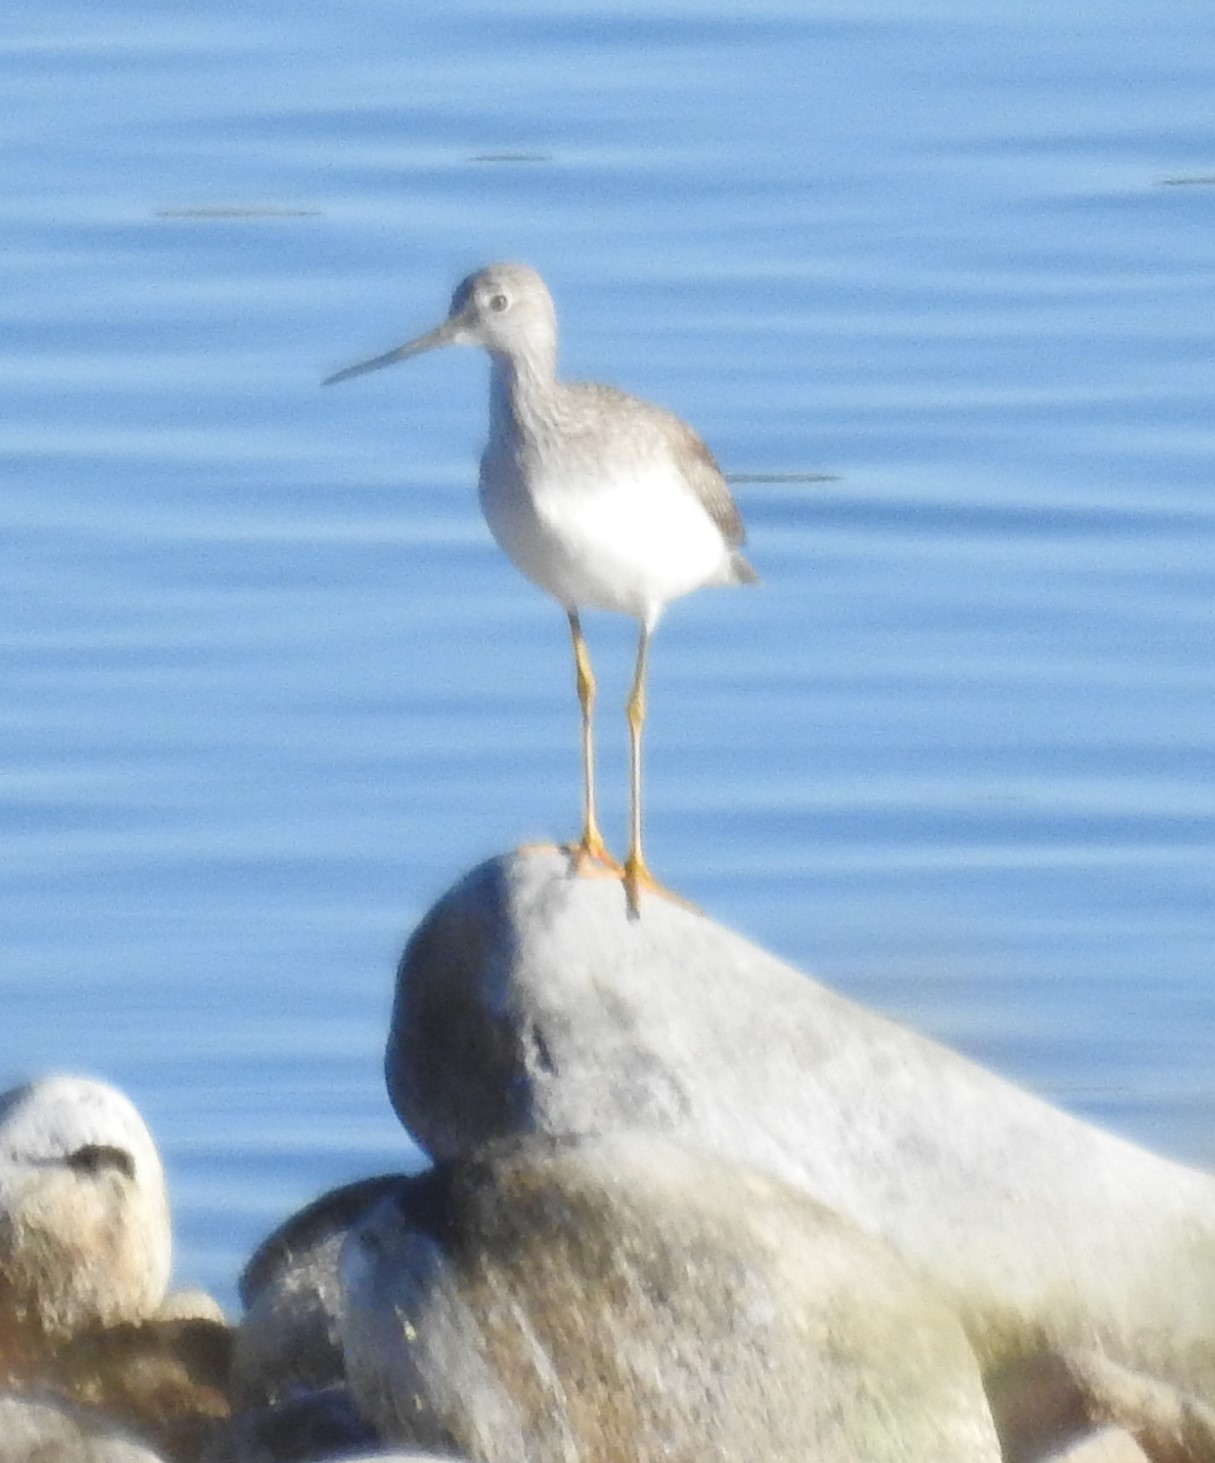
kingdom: Animalia
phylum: Chordata
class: Aves
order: Charadriiformes
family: Scolopacidae
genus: Tringa
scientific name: Tringa melanoleuca
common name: Greater yellowlegs
